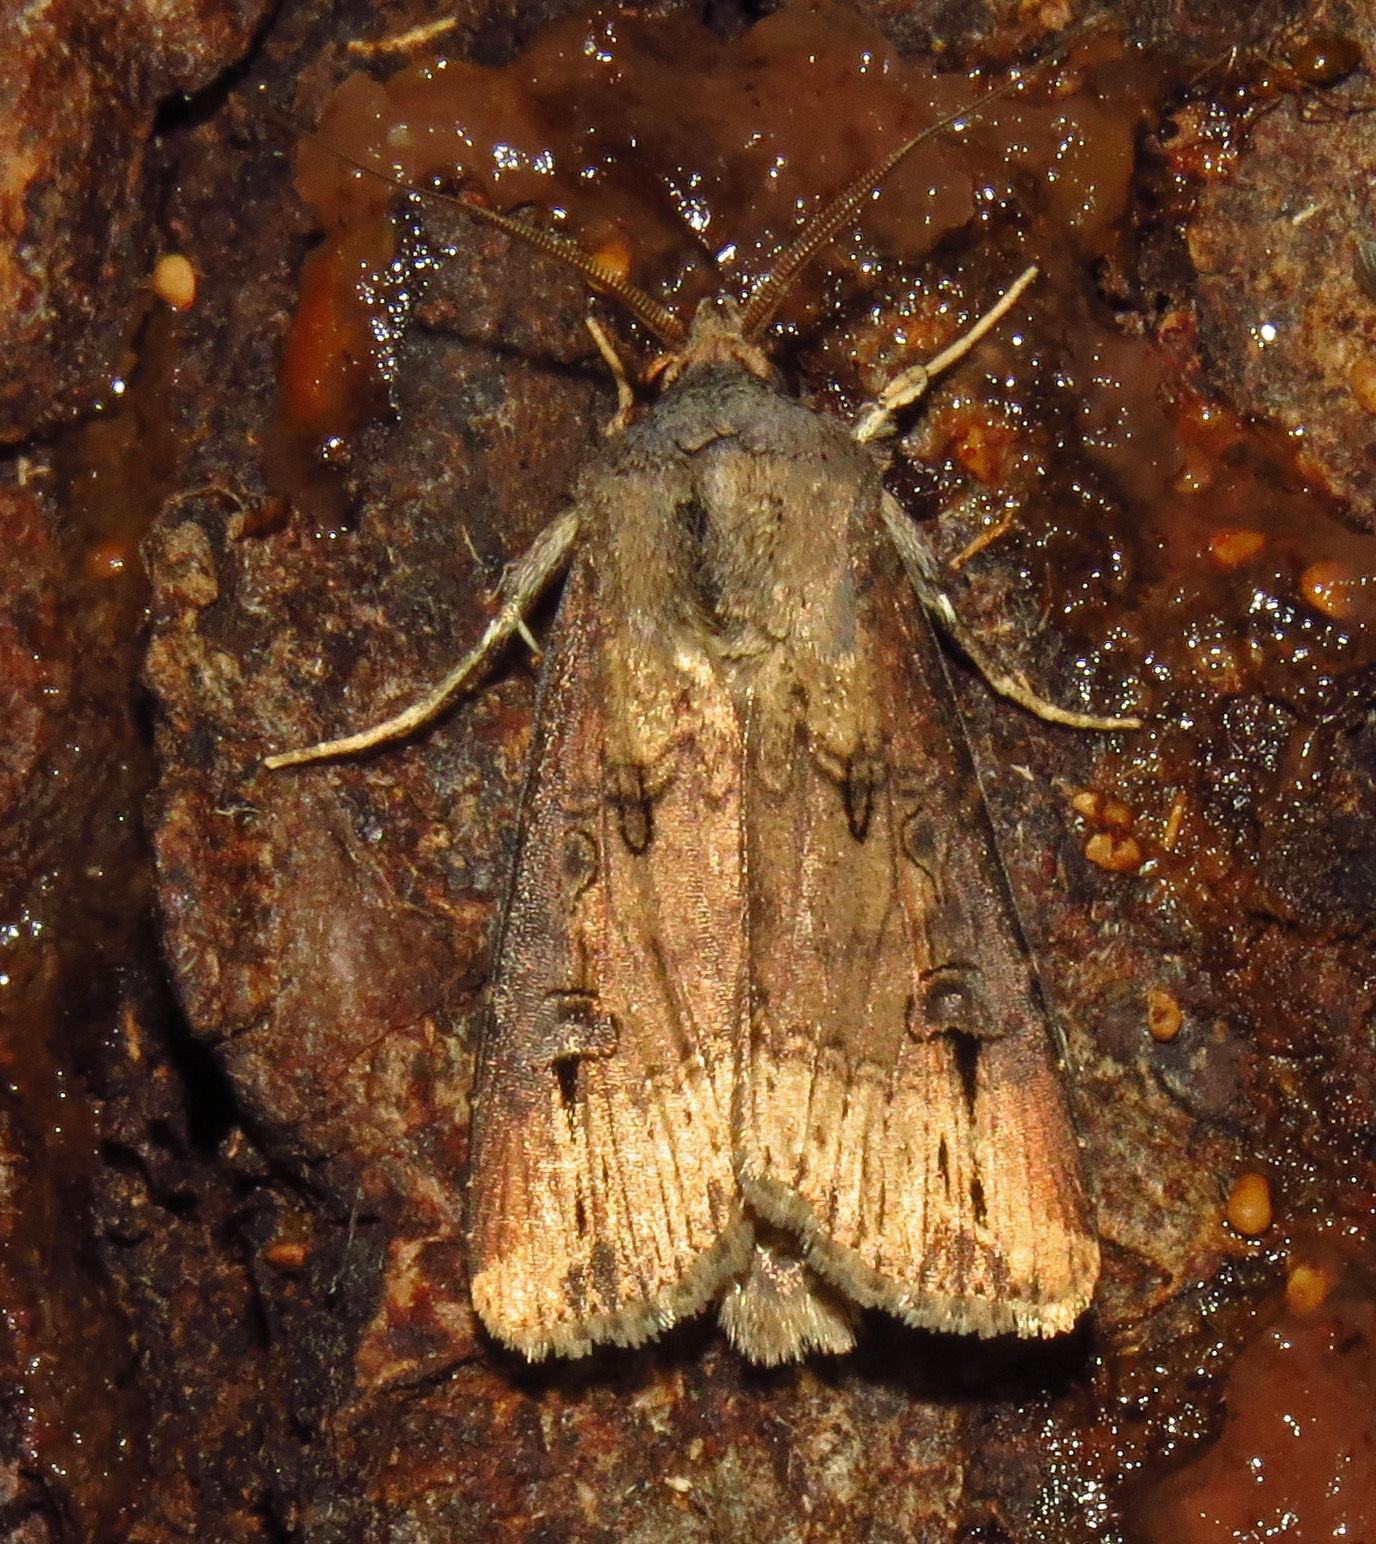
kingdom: Animalia
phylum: Arthropoda
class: Insecta
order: Lepidoptera
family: Noctuidae
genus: Agrotis
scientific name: Agrotis ipsilon
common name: Dark sword-grass
